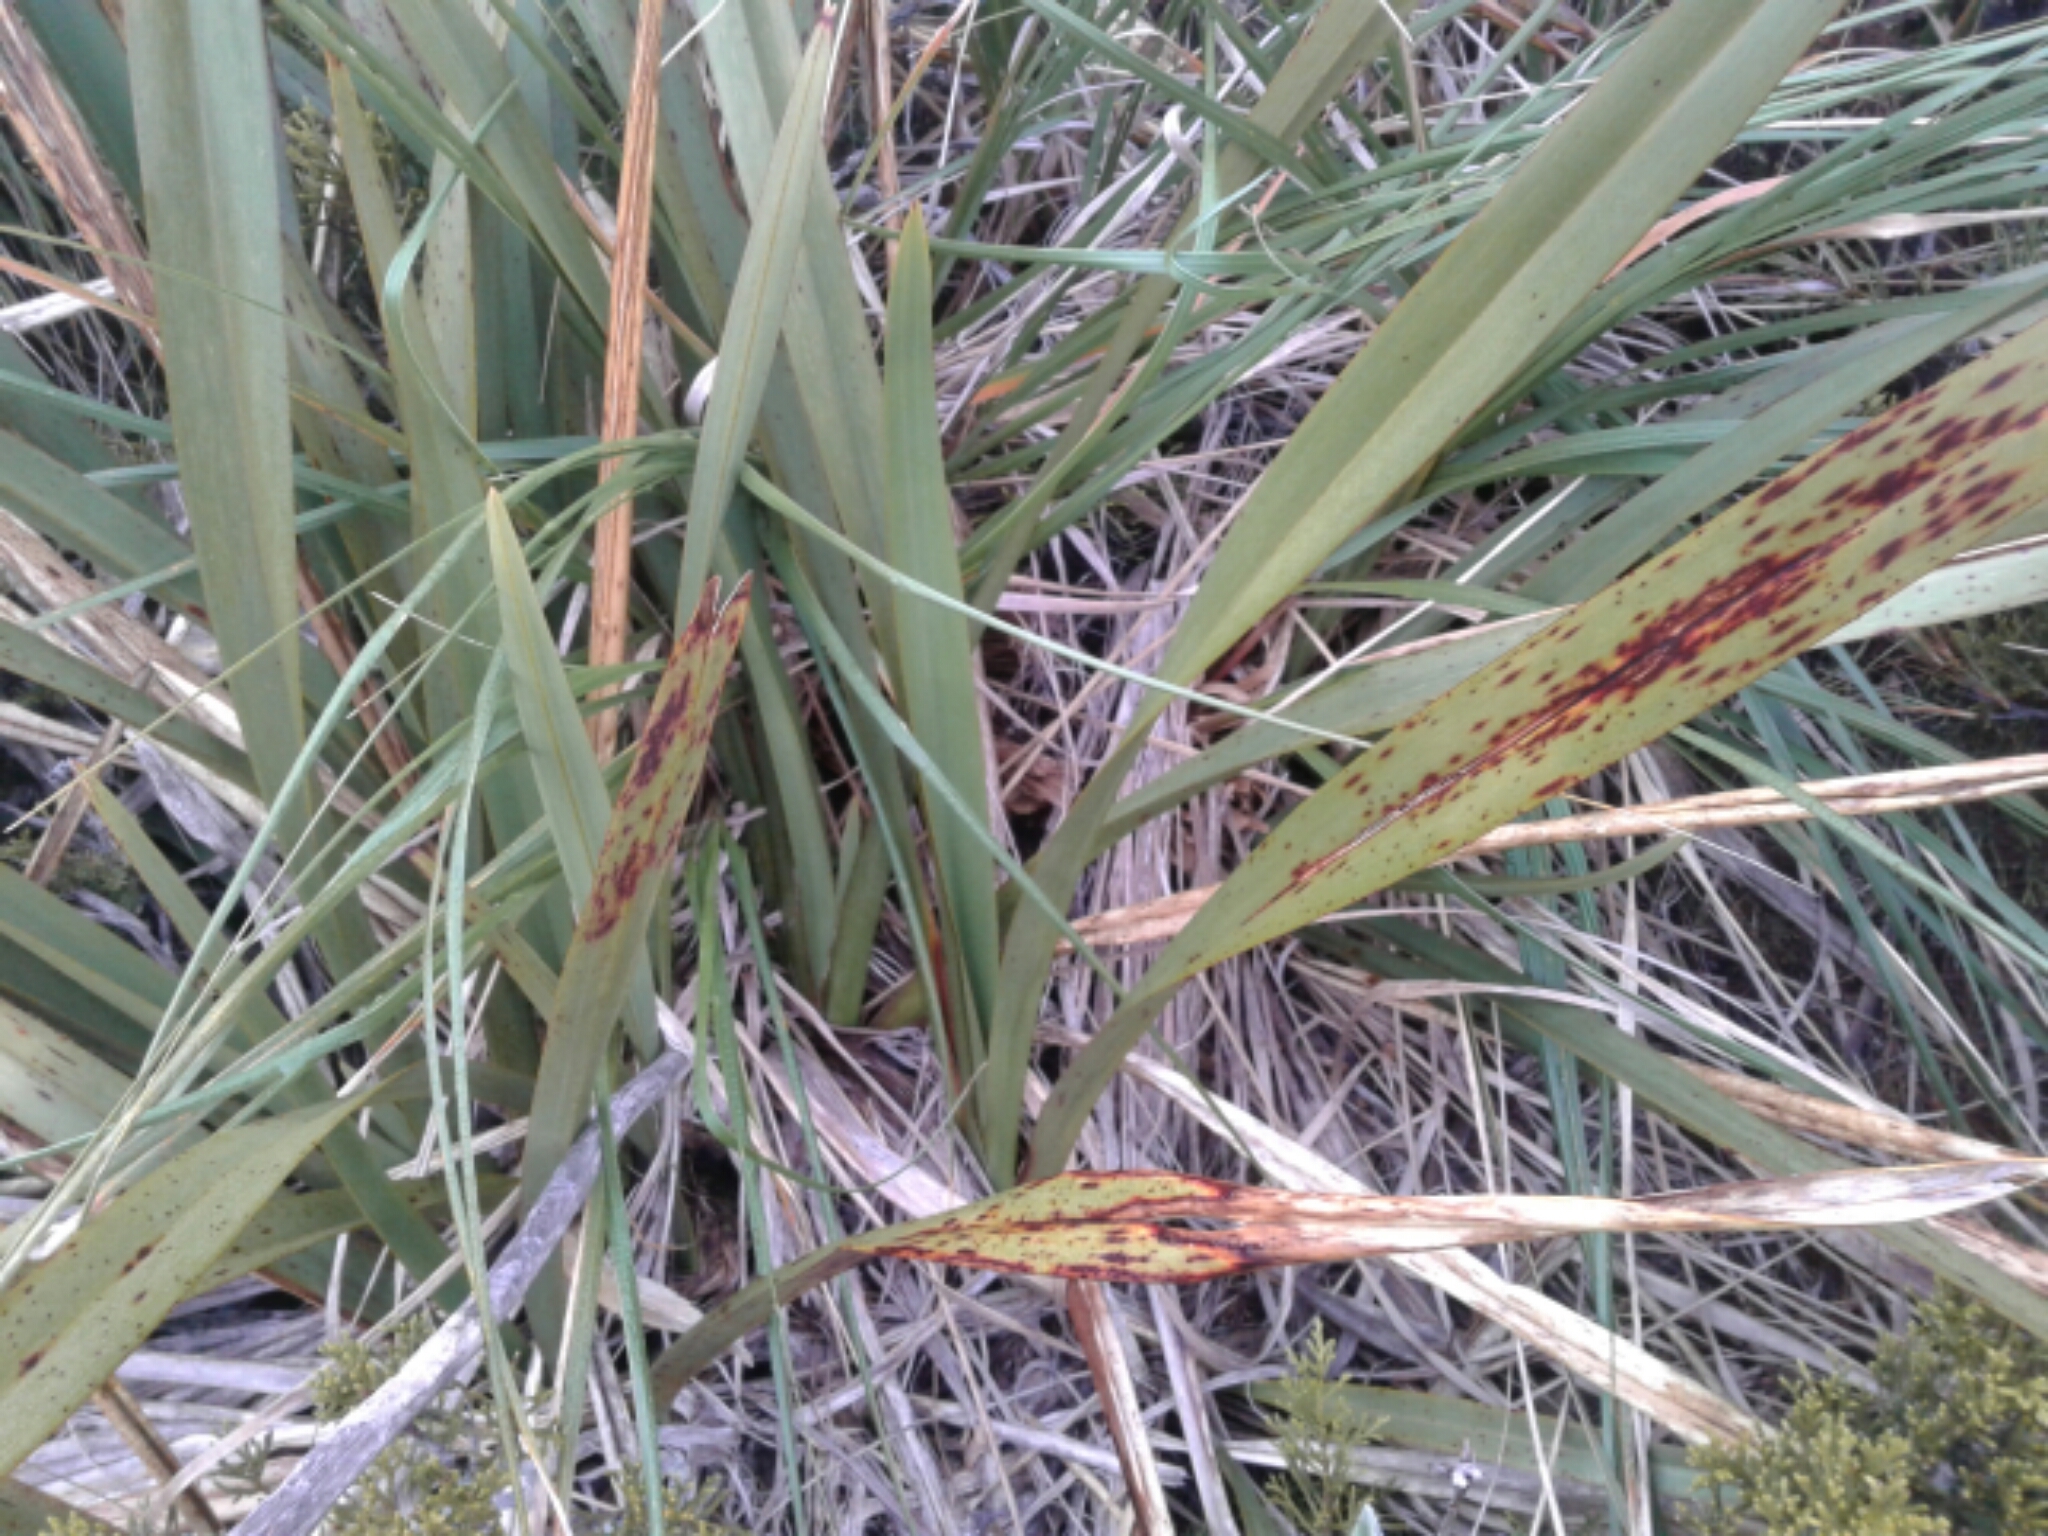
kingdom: Plantae
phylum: Tracheophyta
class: Liliopsida
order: Asparagales
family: Asphodelaceae
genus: Phormium
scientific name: Phormium
